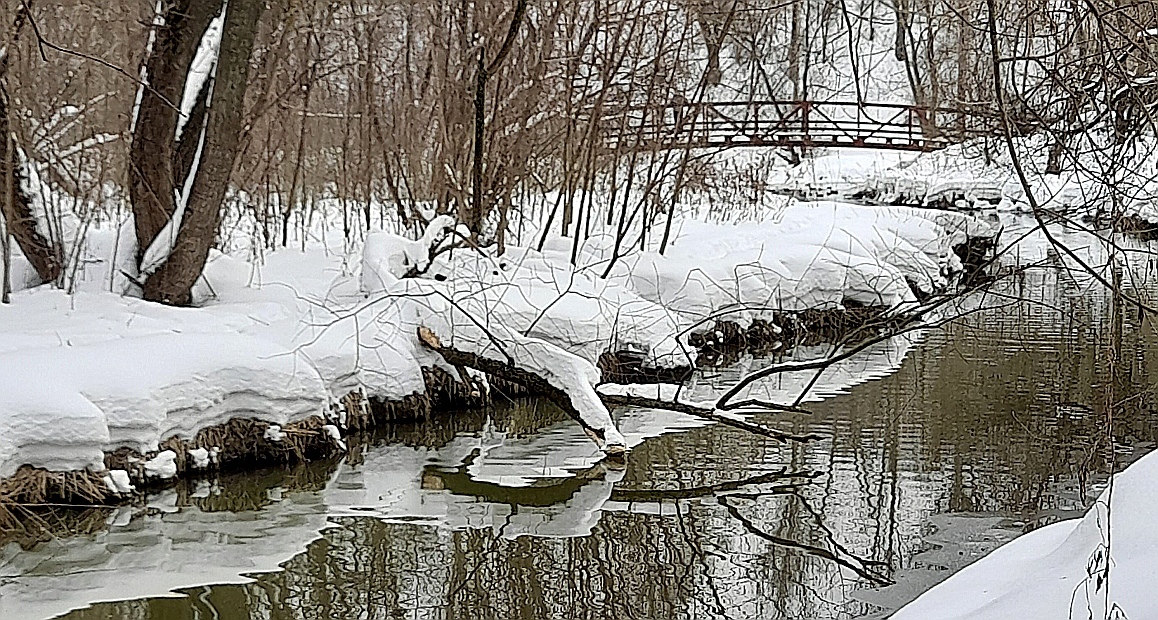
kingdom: Animalia
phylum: Chordata
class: Mammalia
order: Rodentia
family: Castoridae
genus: Castor
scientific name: Castor fiber
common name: Eurasian beaver
